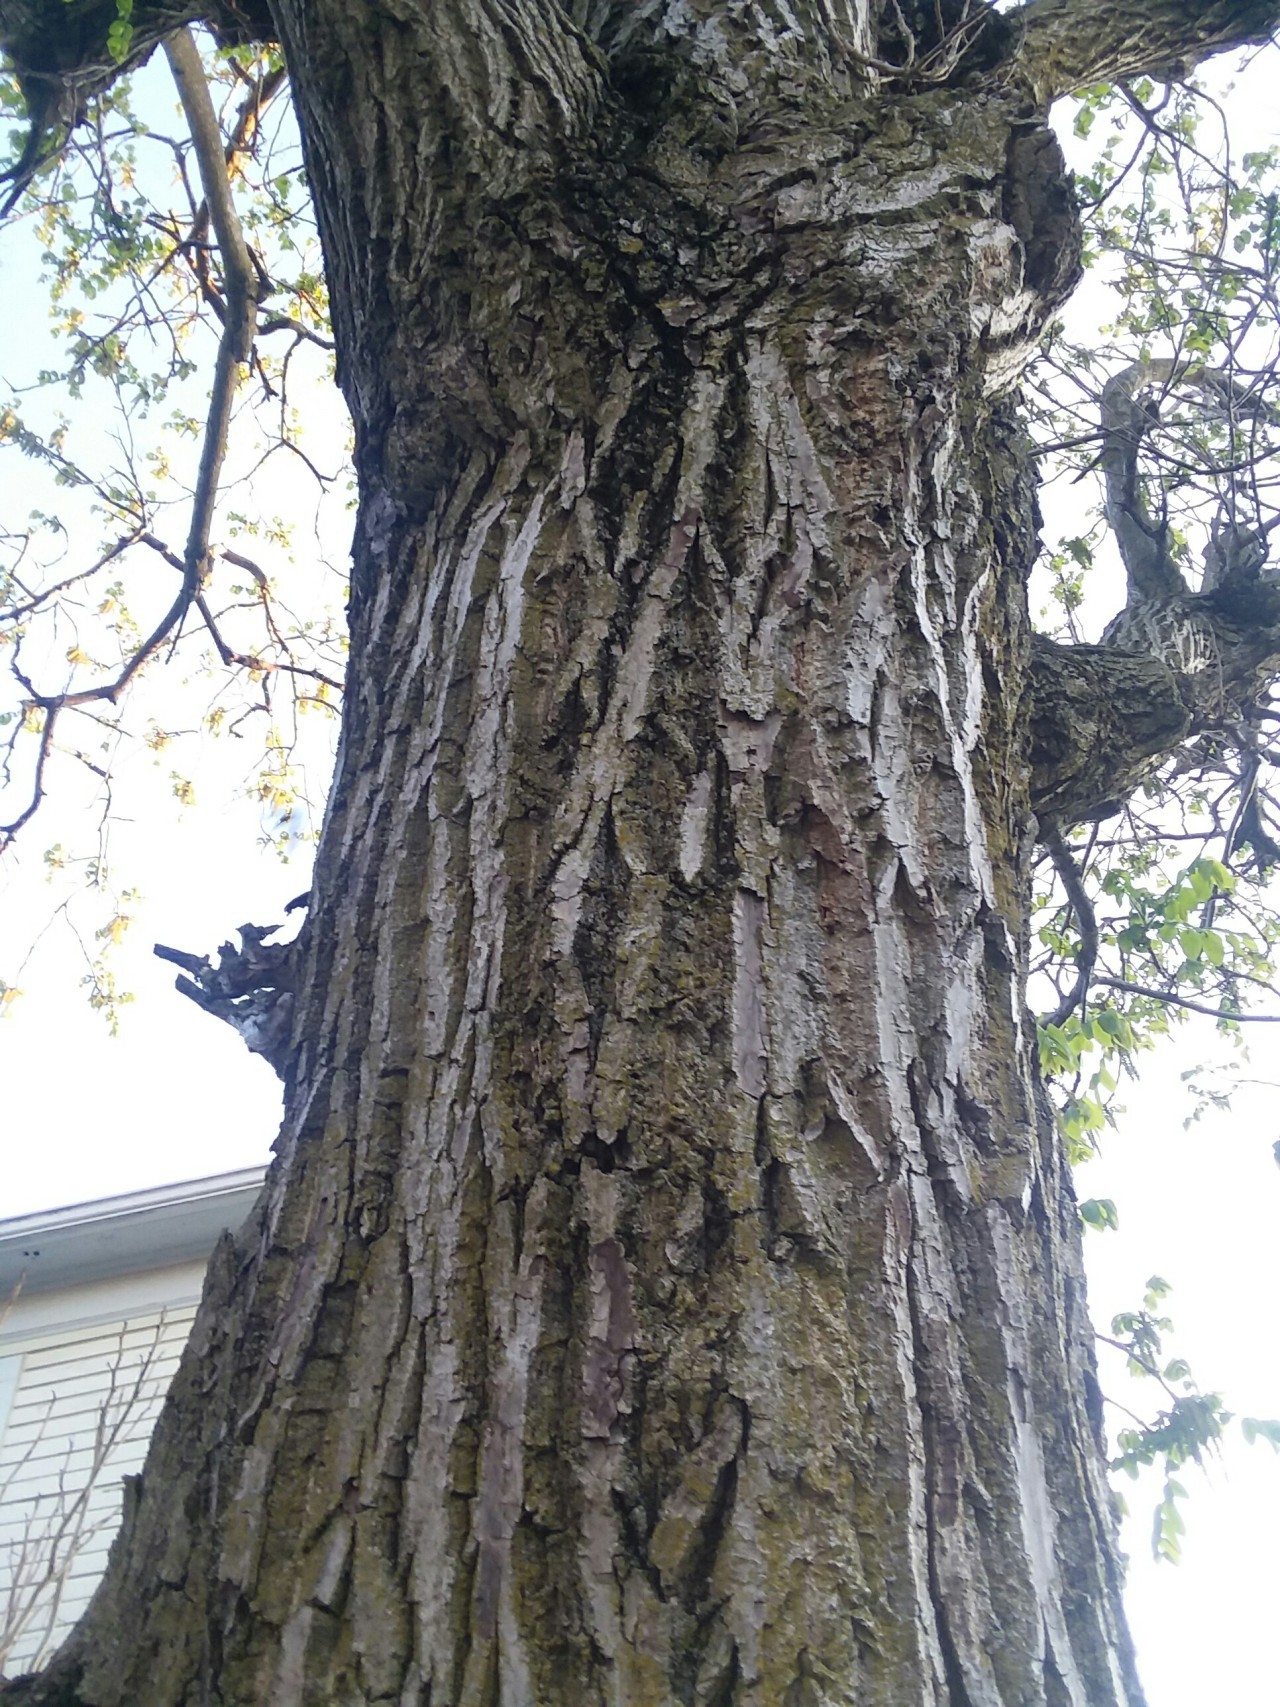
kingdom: Plantae
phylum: Tracheophyta
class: Magnoliopsida
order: Fagales
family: Juglandaceae
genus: Juglans
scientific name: Juglans cinerea
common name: Butternut
